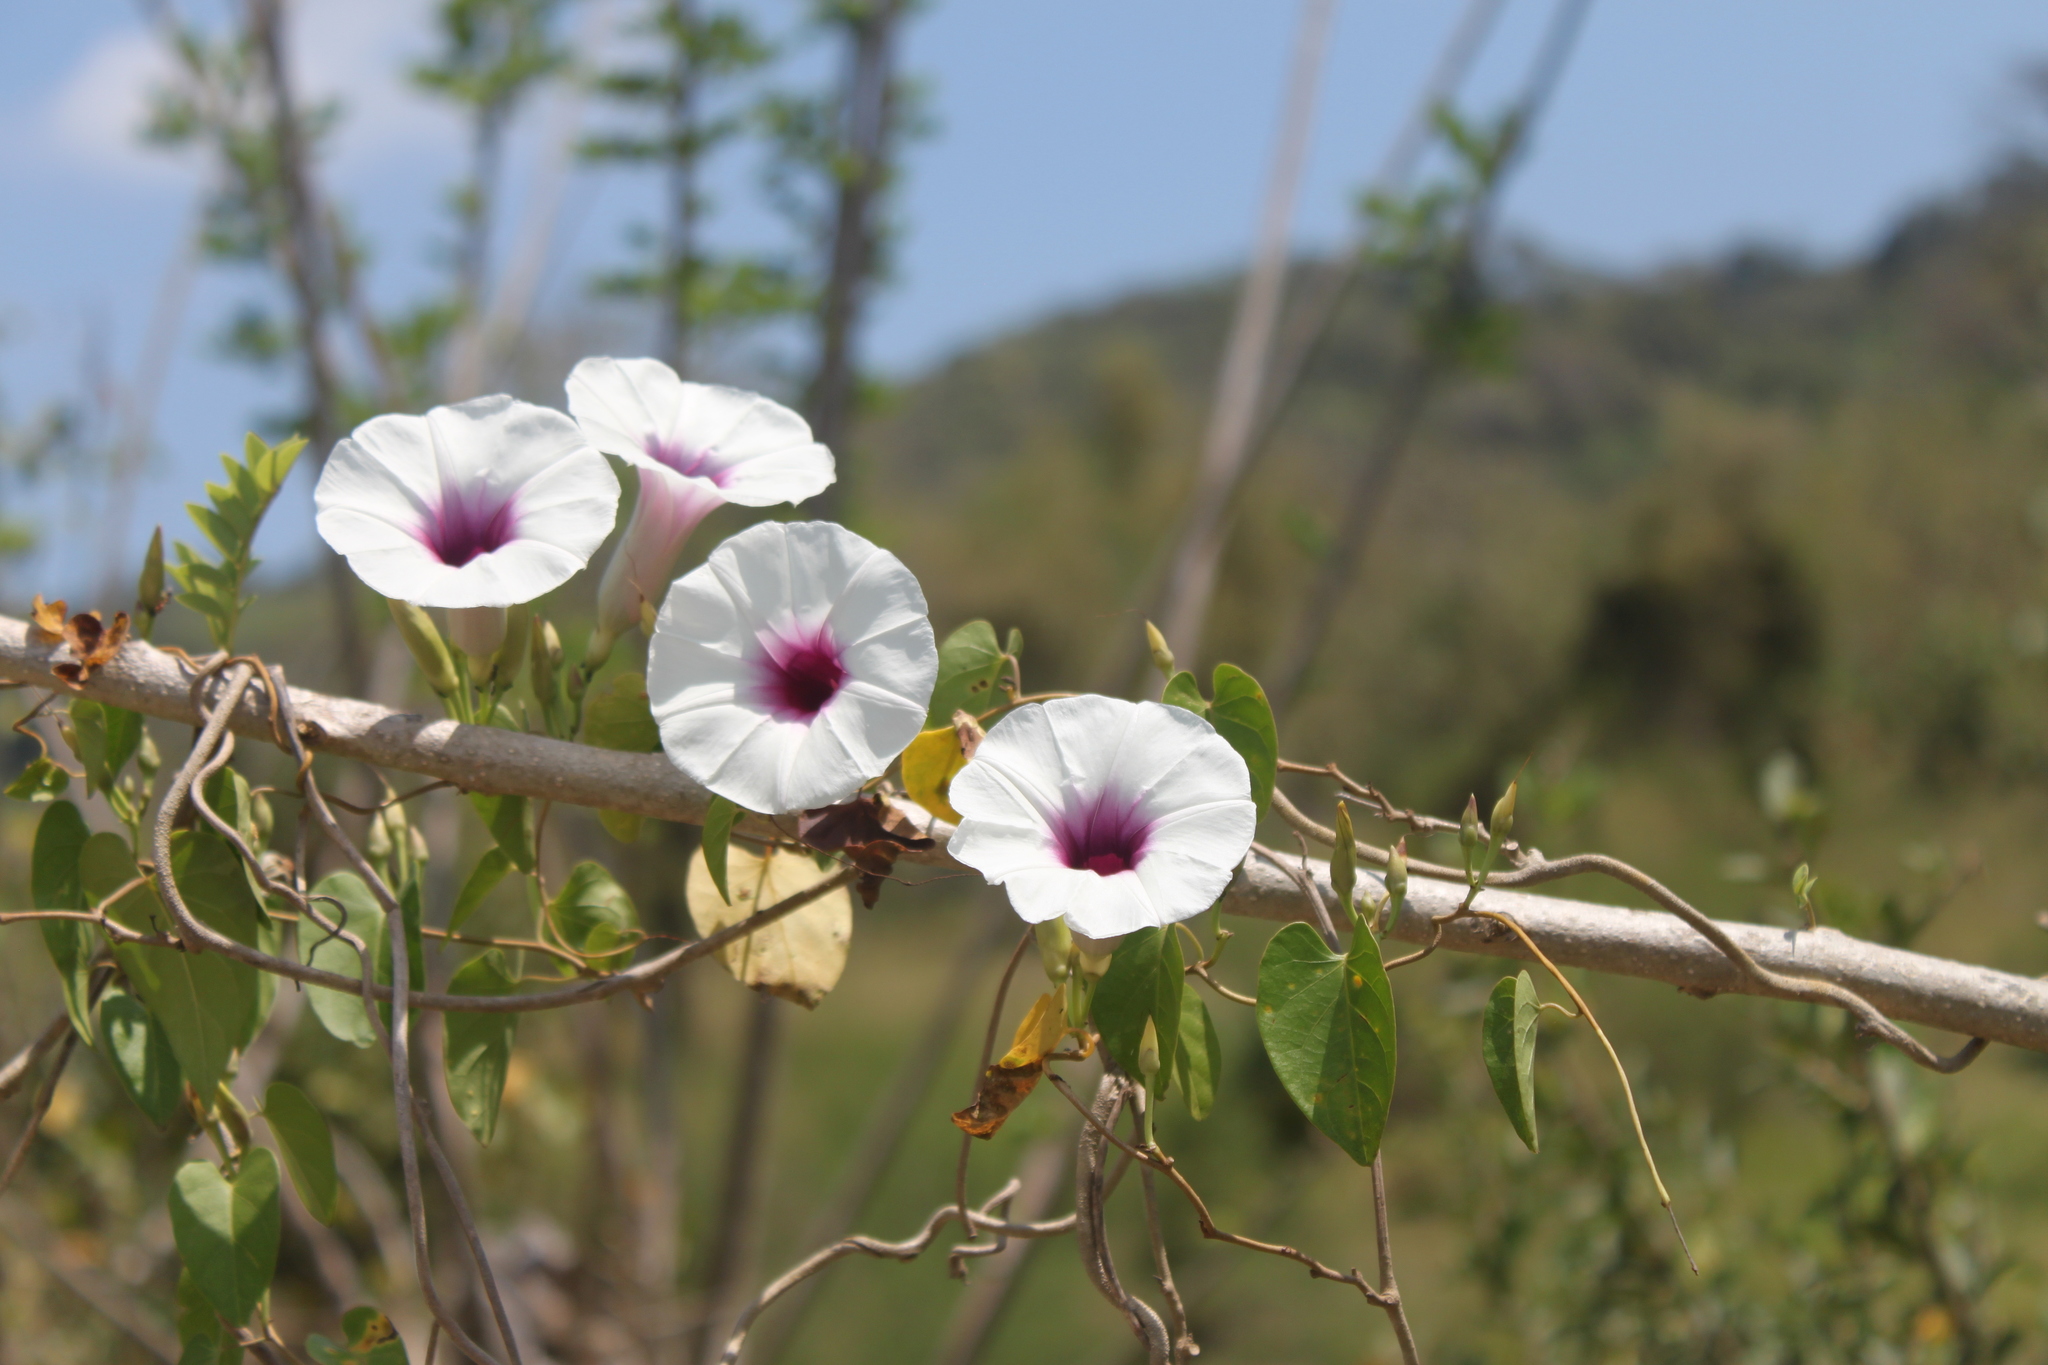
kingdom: Plantae
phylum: Tracheophyta
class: Magnoliopsida
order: Solanales
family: Convolvulaceae
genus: Ipomoea
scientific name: Ipomoea squamosa
